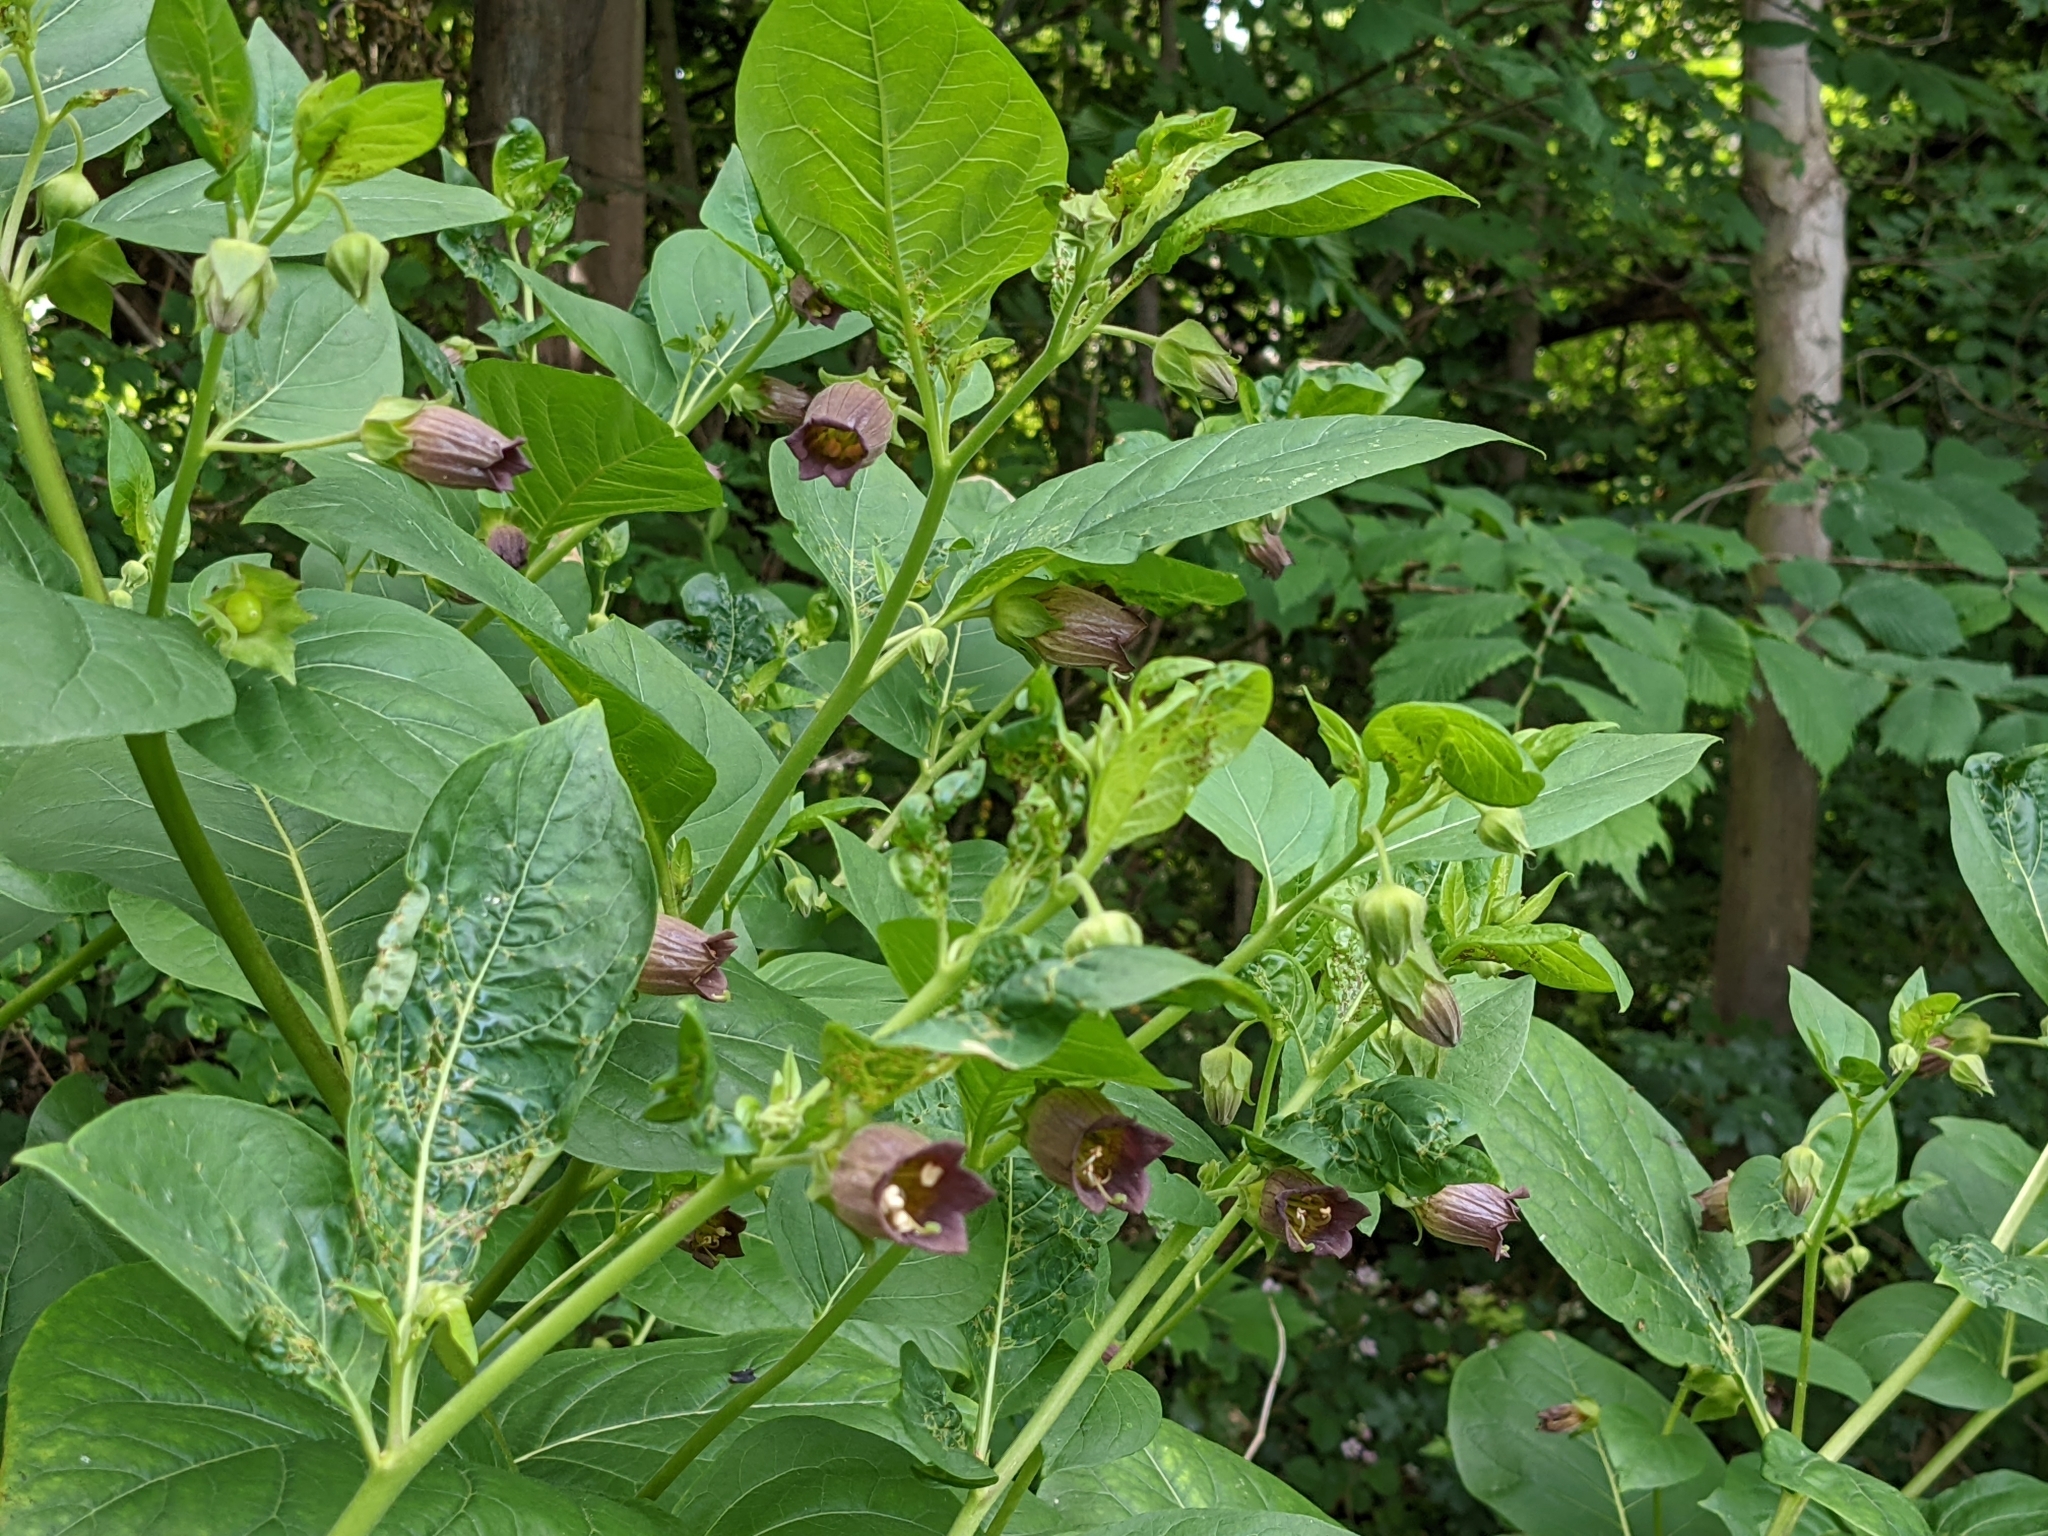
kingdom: Plantae
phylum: Tracheophyta
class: Magnoliopsida
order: Solanales
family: Solanaceae
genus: Atropa
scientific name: Atropa belladonna
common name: Deadly nightshade
